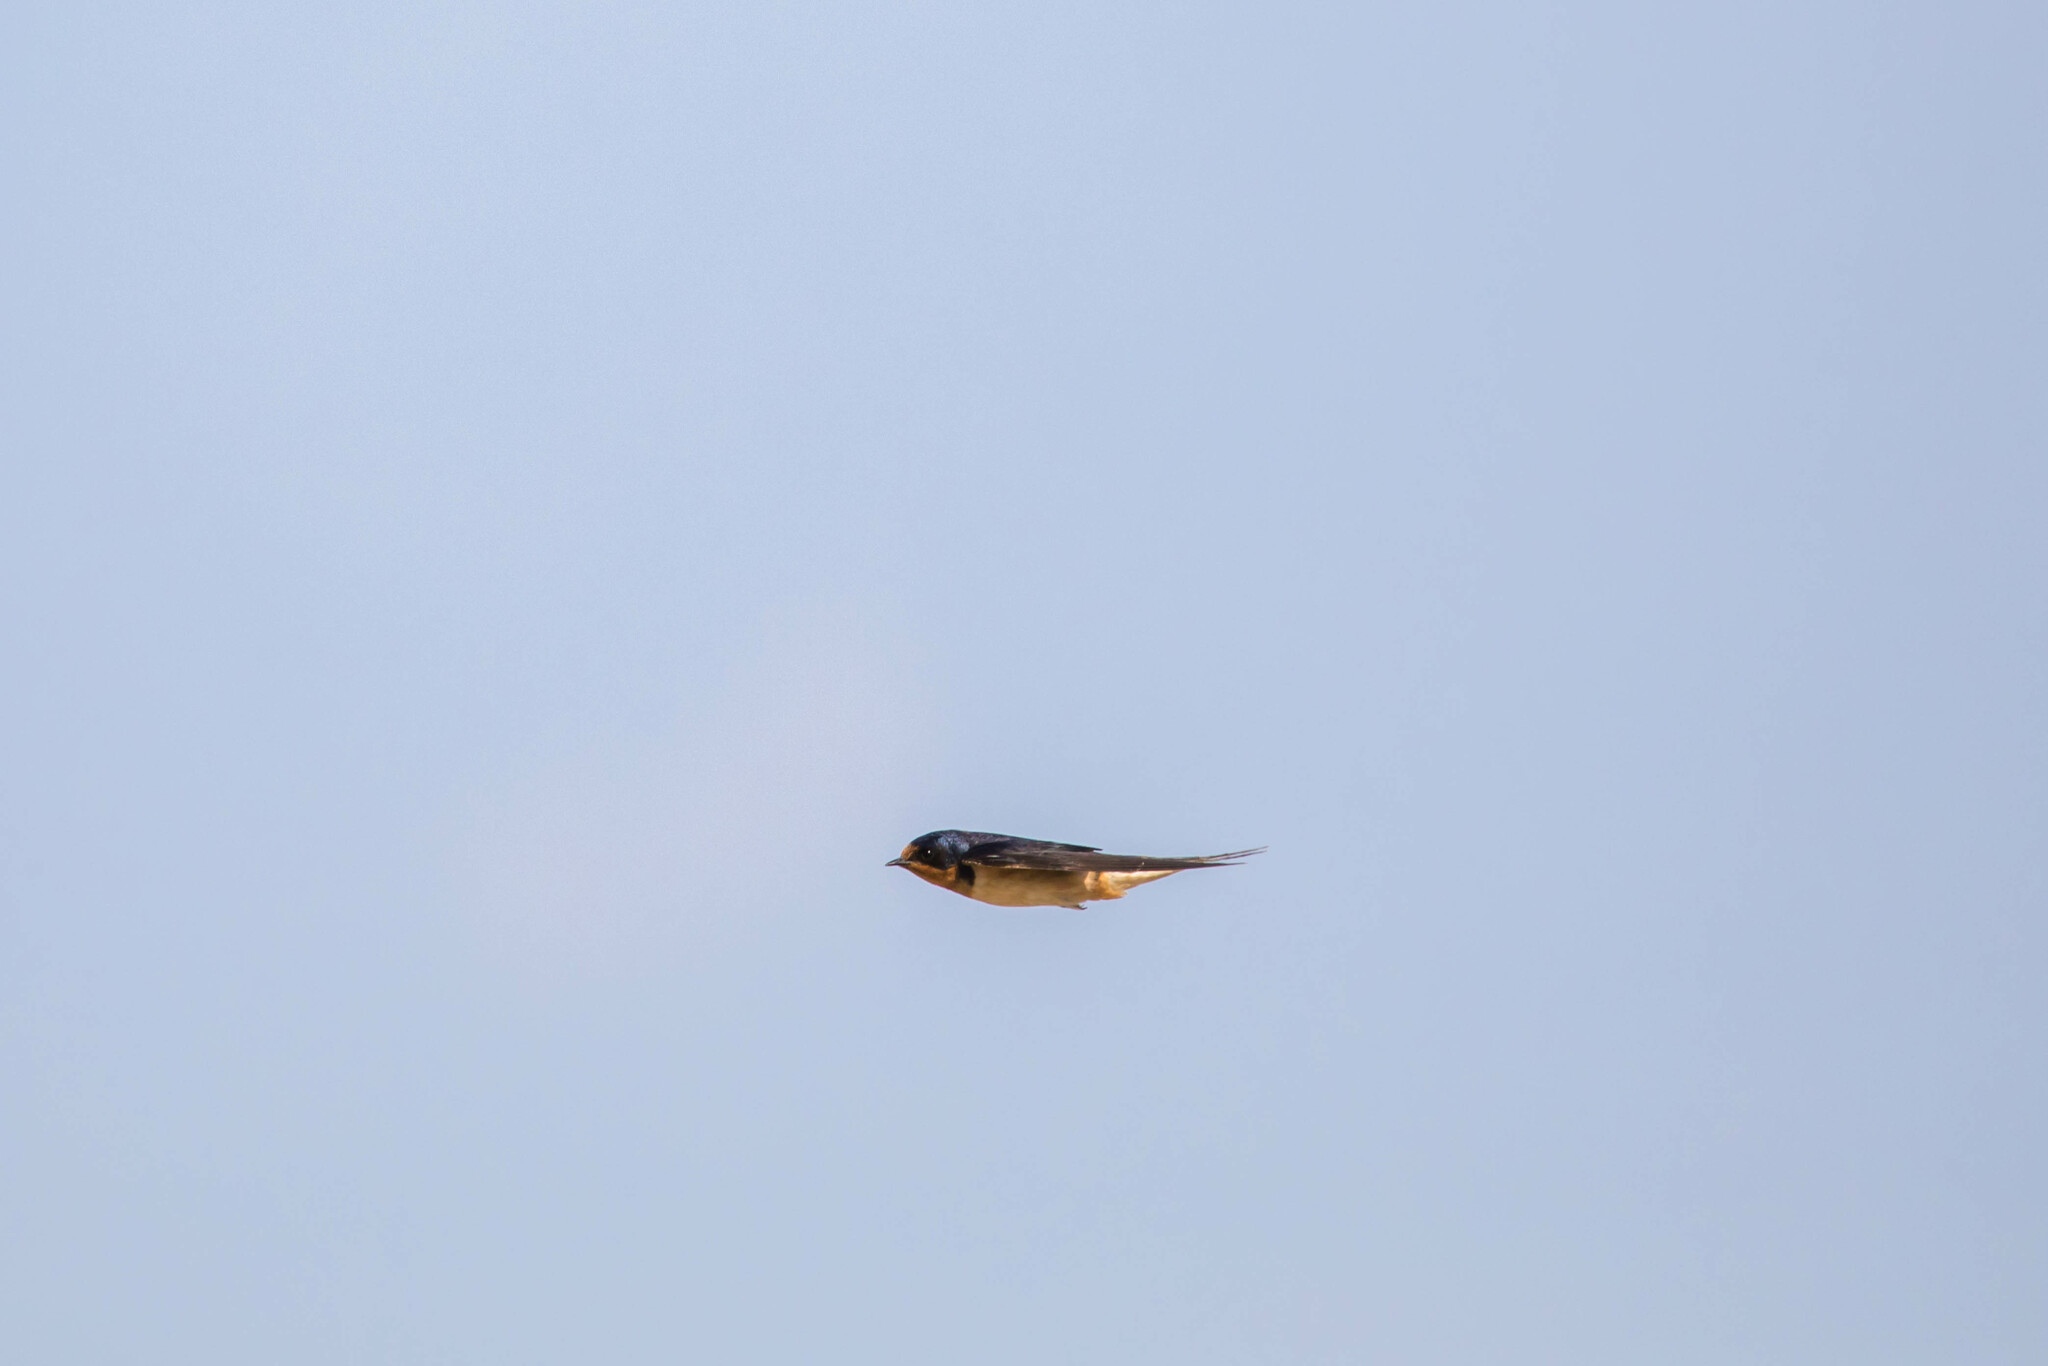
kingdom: Animalia
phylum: Chordata
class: Aves
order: Passeriformes
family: Hirundinidae
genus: Hirundo
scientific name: Hirundo rustica
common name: Barn swallow
